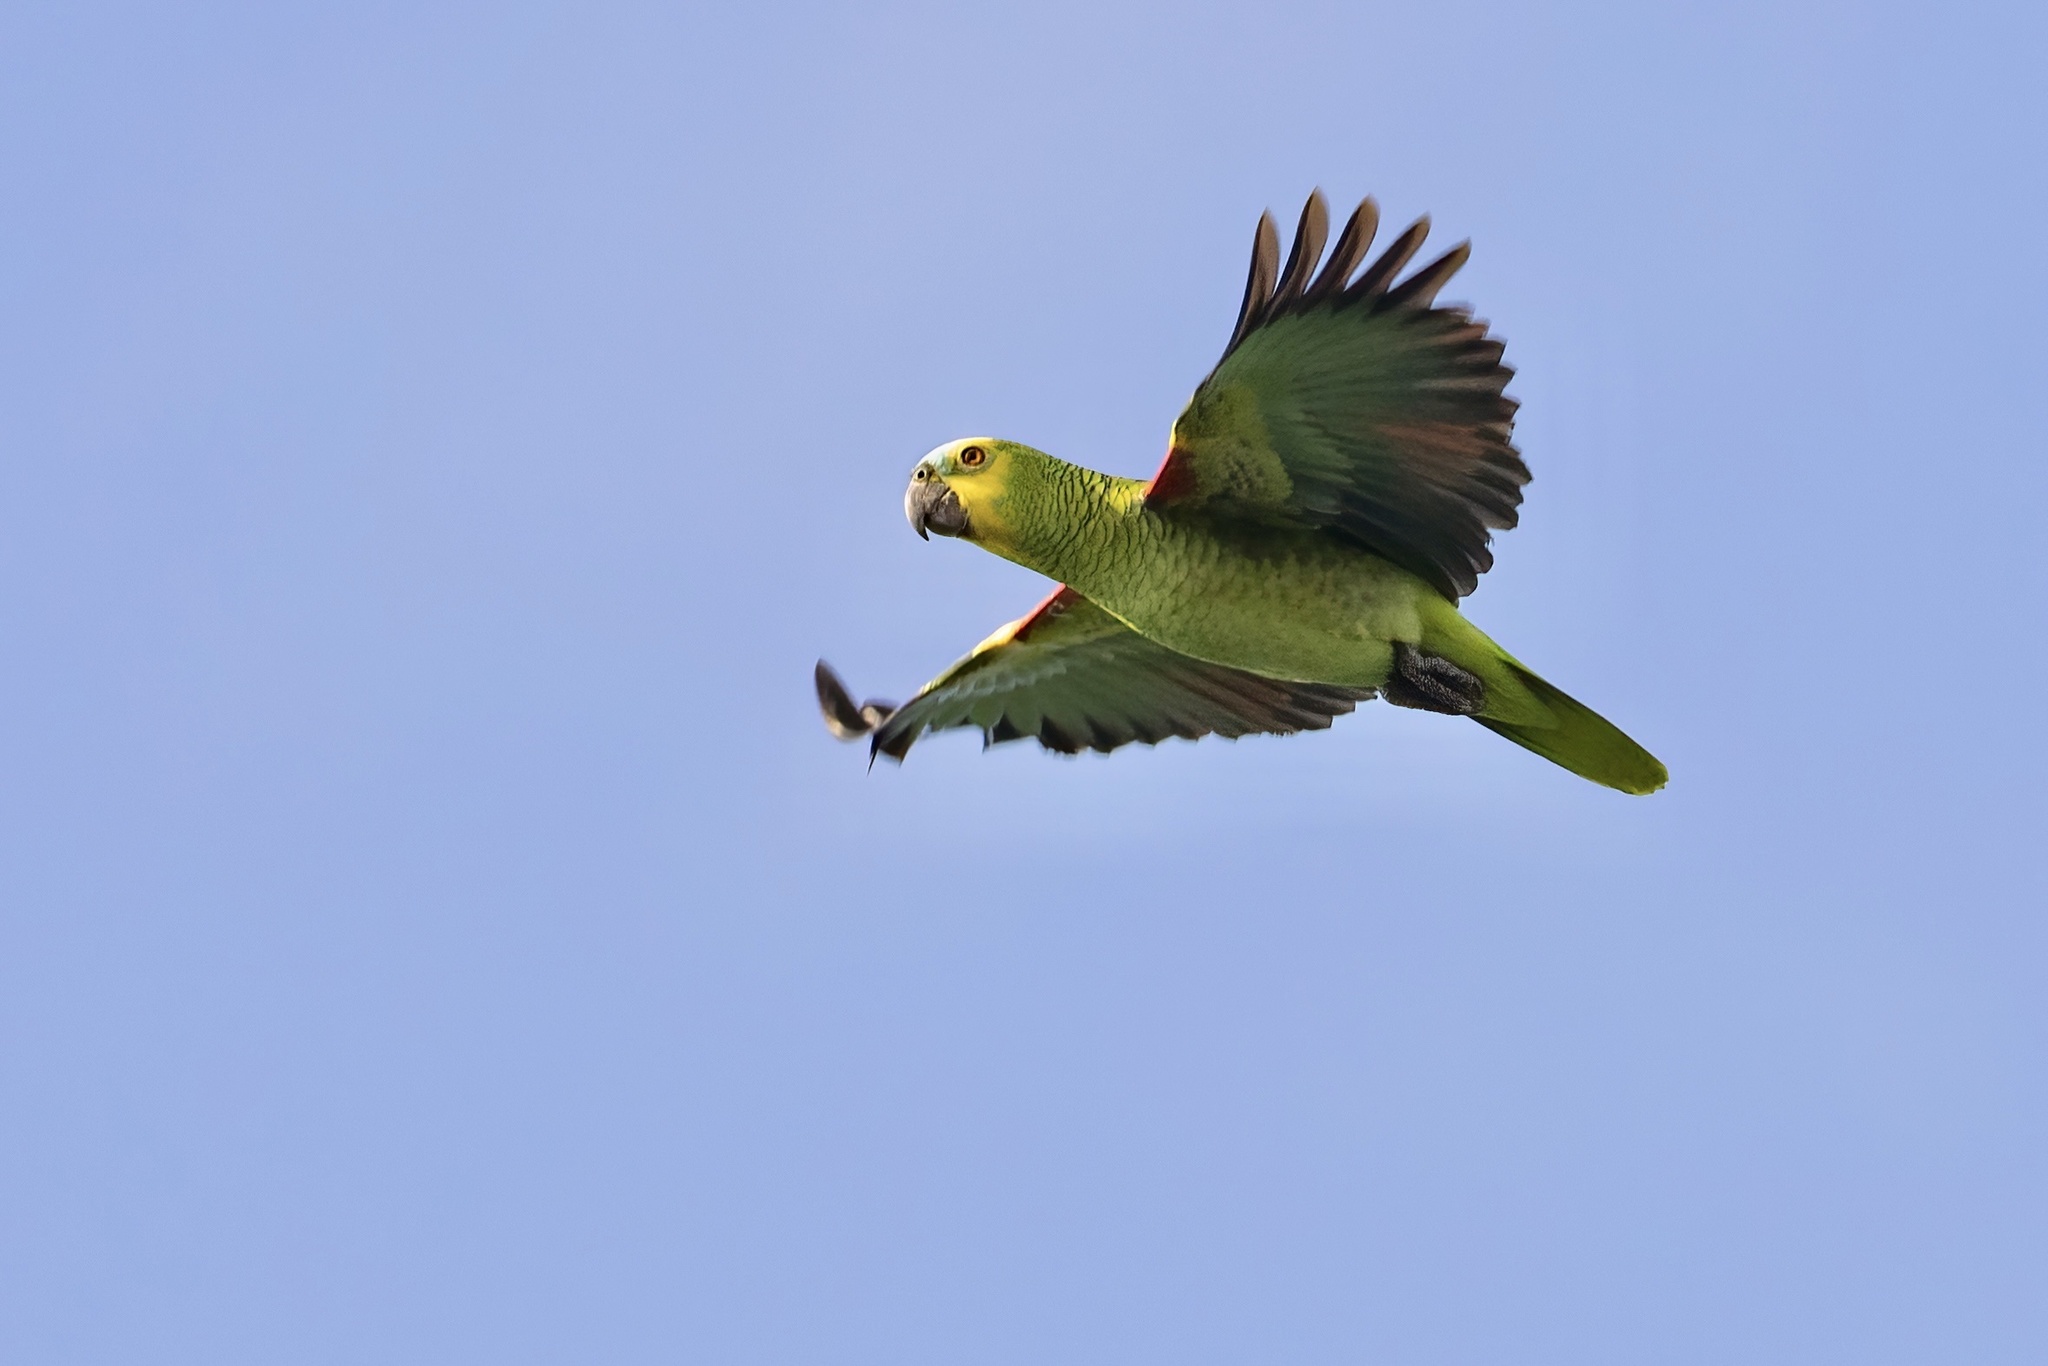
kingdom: Animalia
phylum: Chordata
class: Aves
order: Psittaciformes
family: Psittacidae
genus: Amazona
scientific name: Amazona aestiva
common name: Turquoise-fronted amazon
